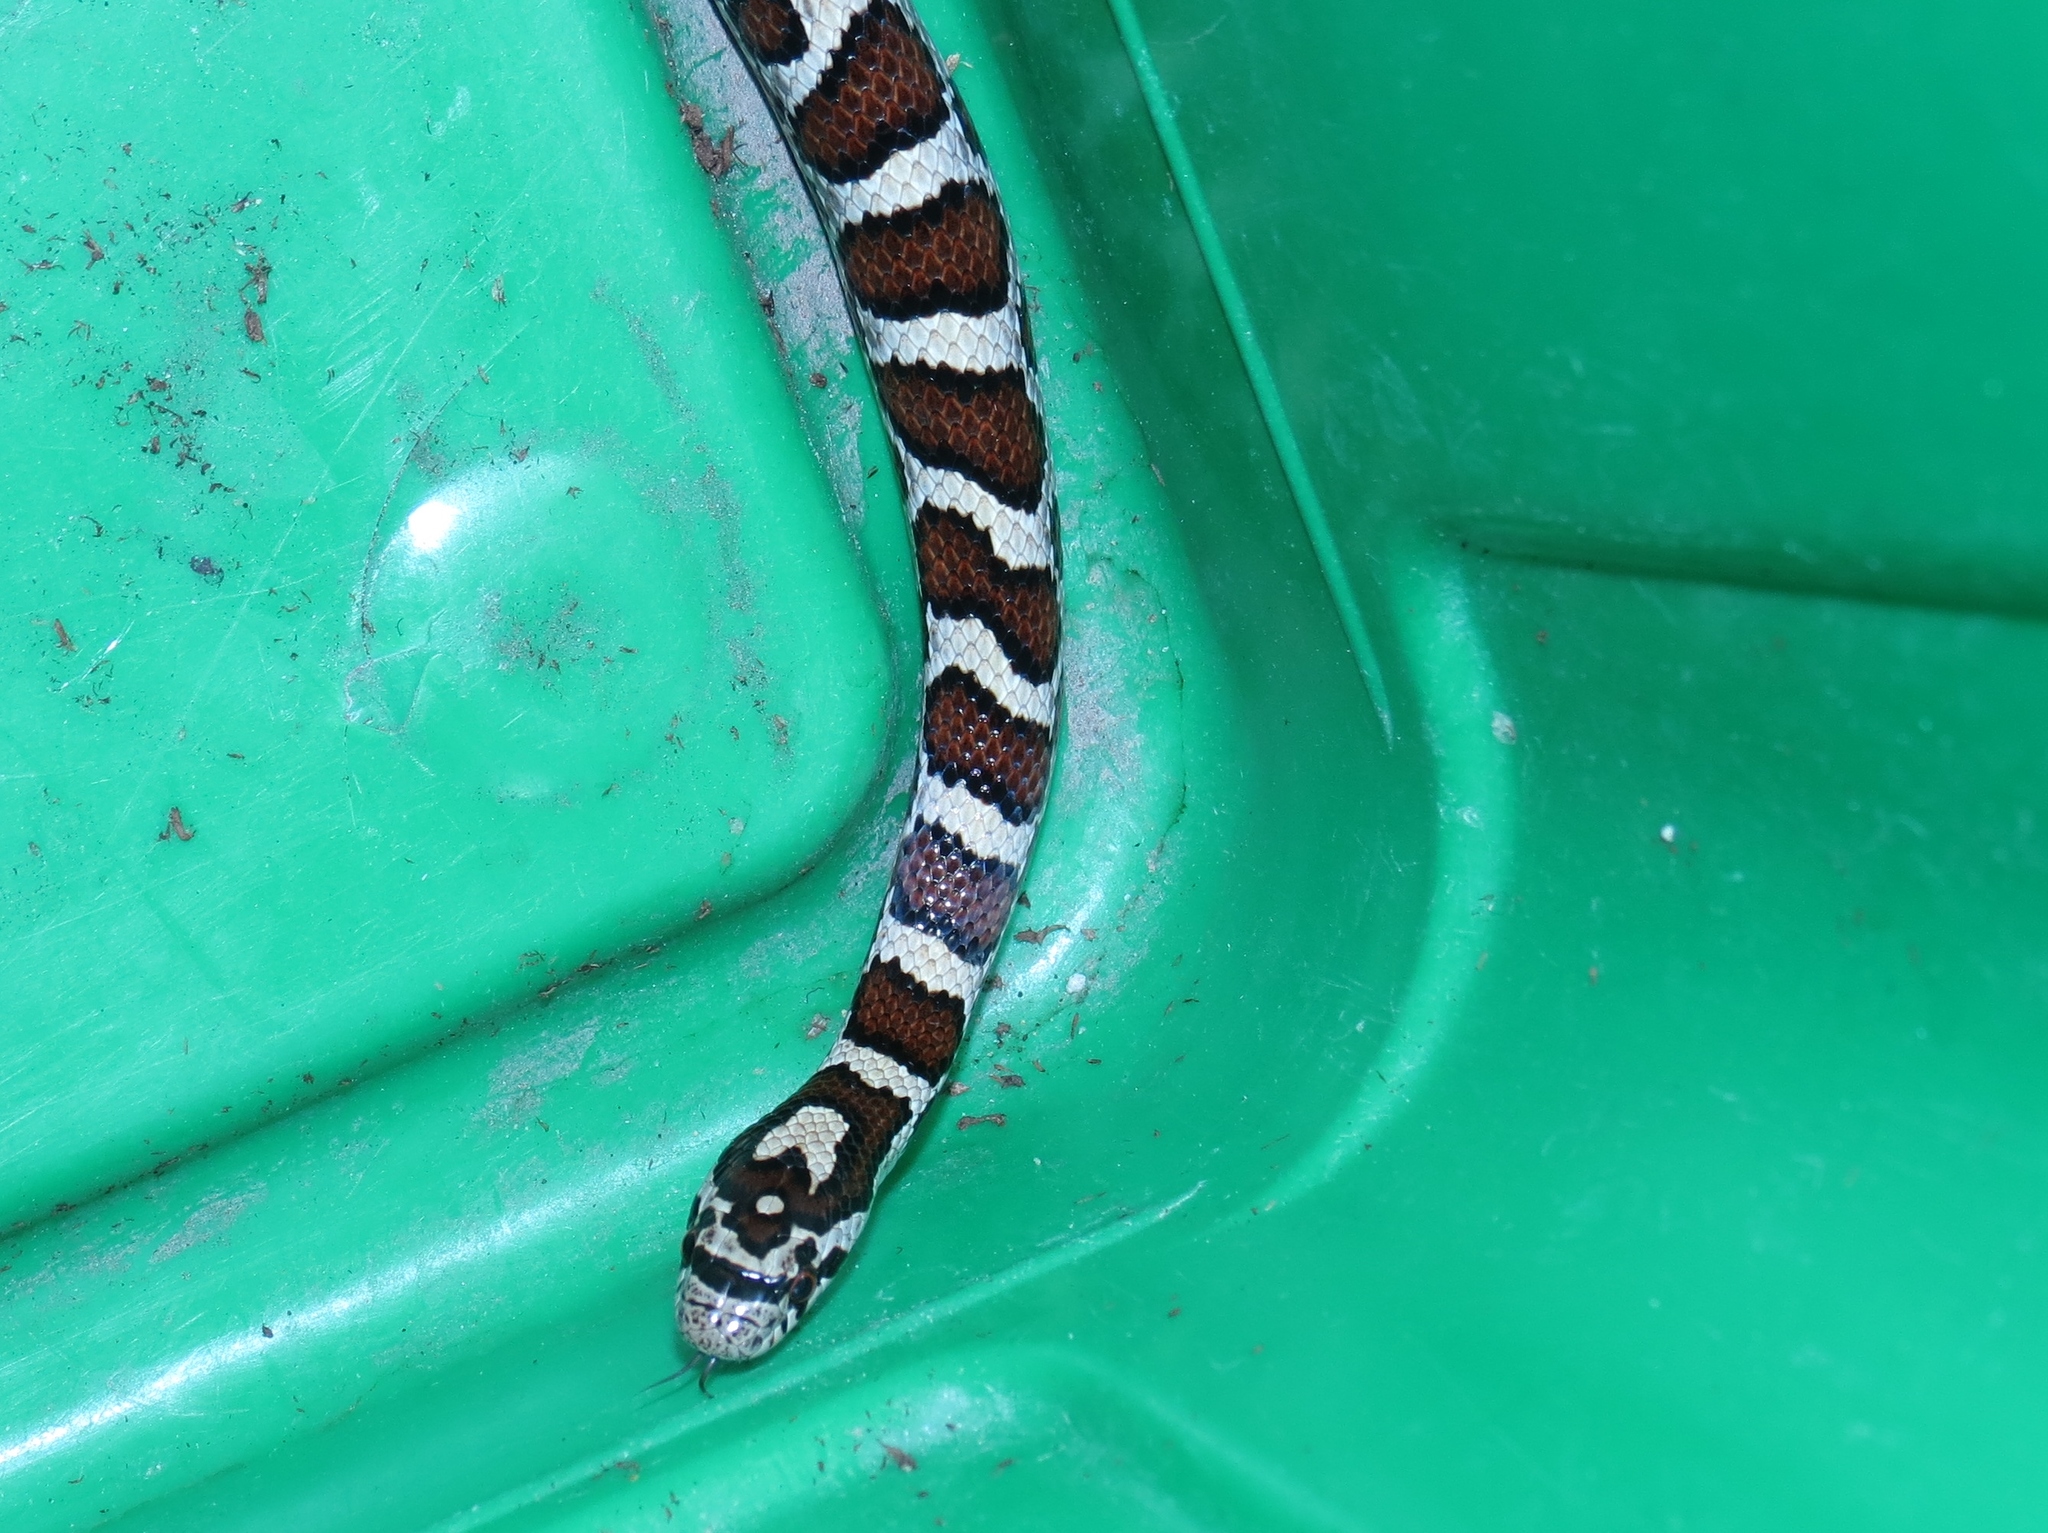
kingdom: Animalia
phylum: Chordata
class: Squamata
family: Colubridae
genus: Lampropeltis
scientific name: Lampropeltis triangulum
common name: Eastern milksnake
